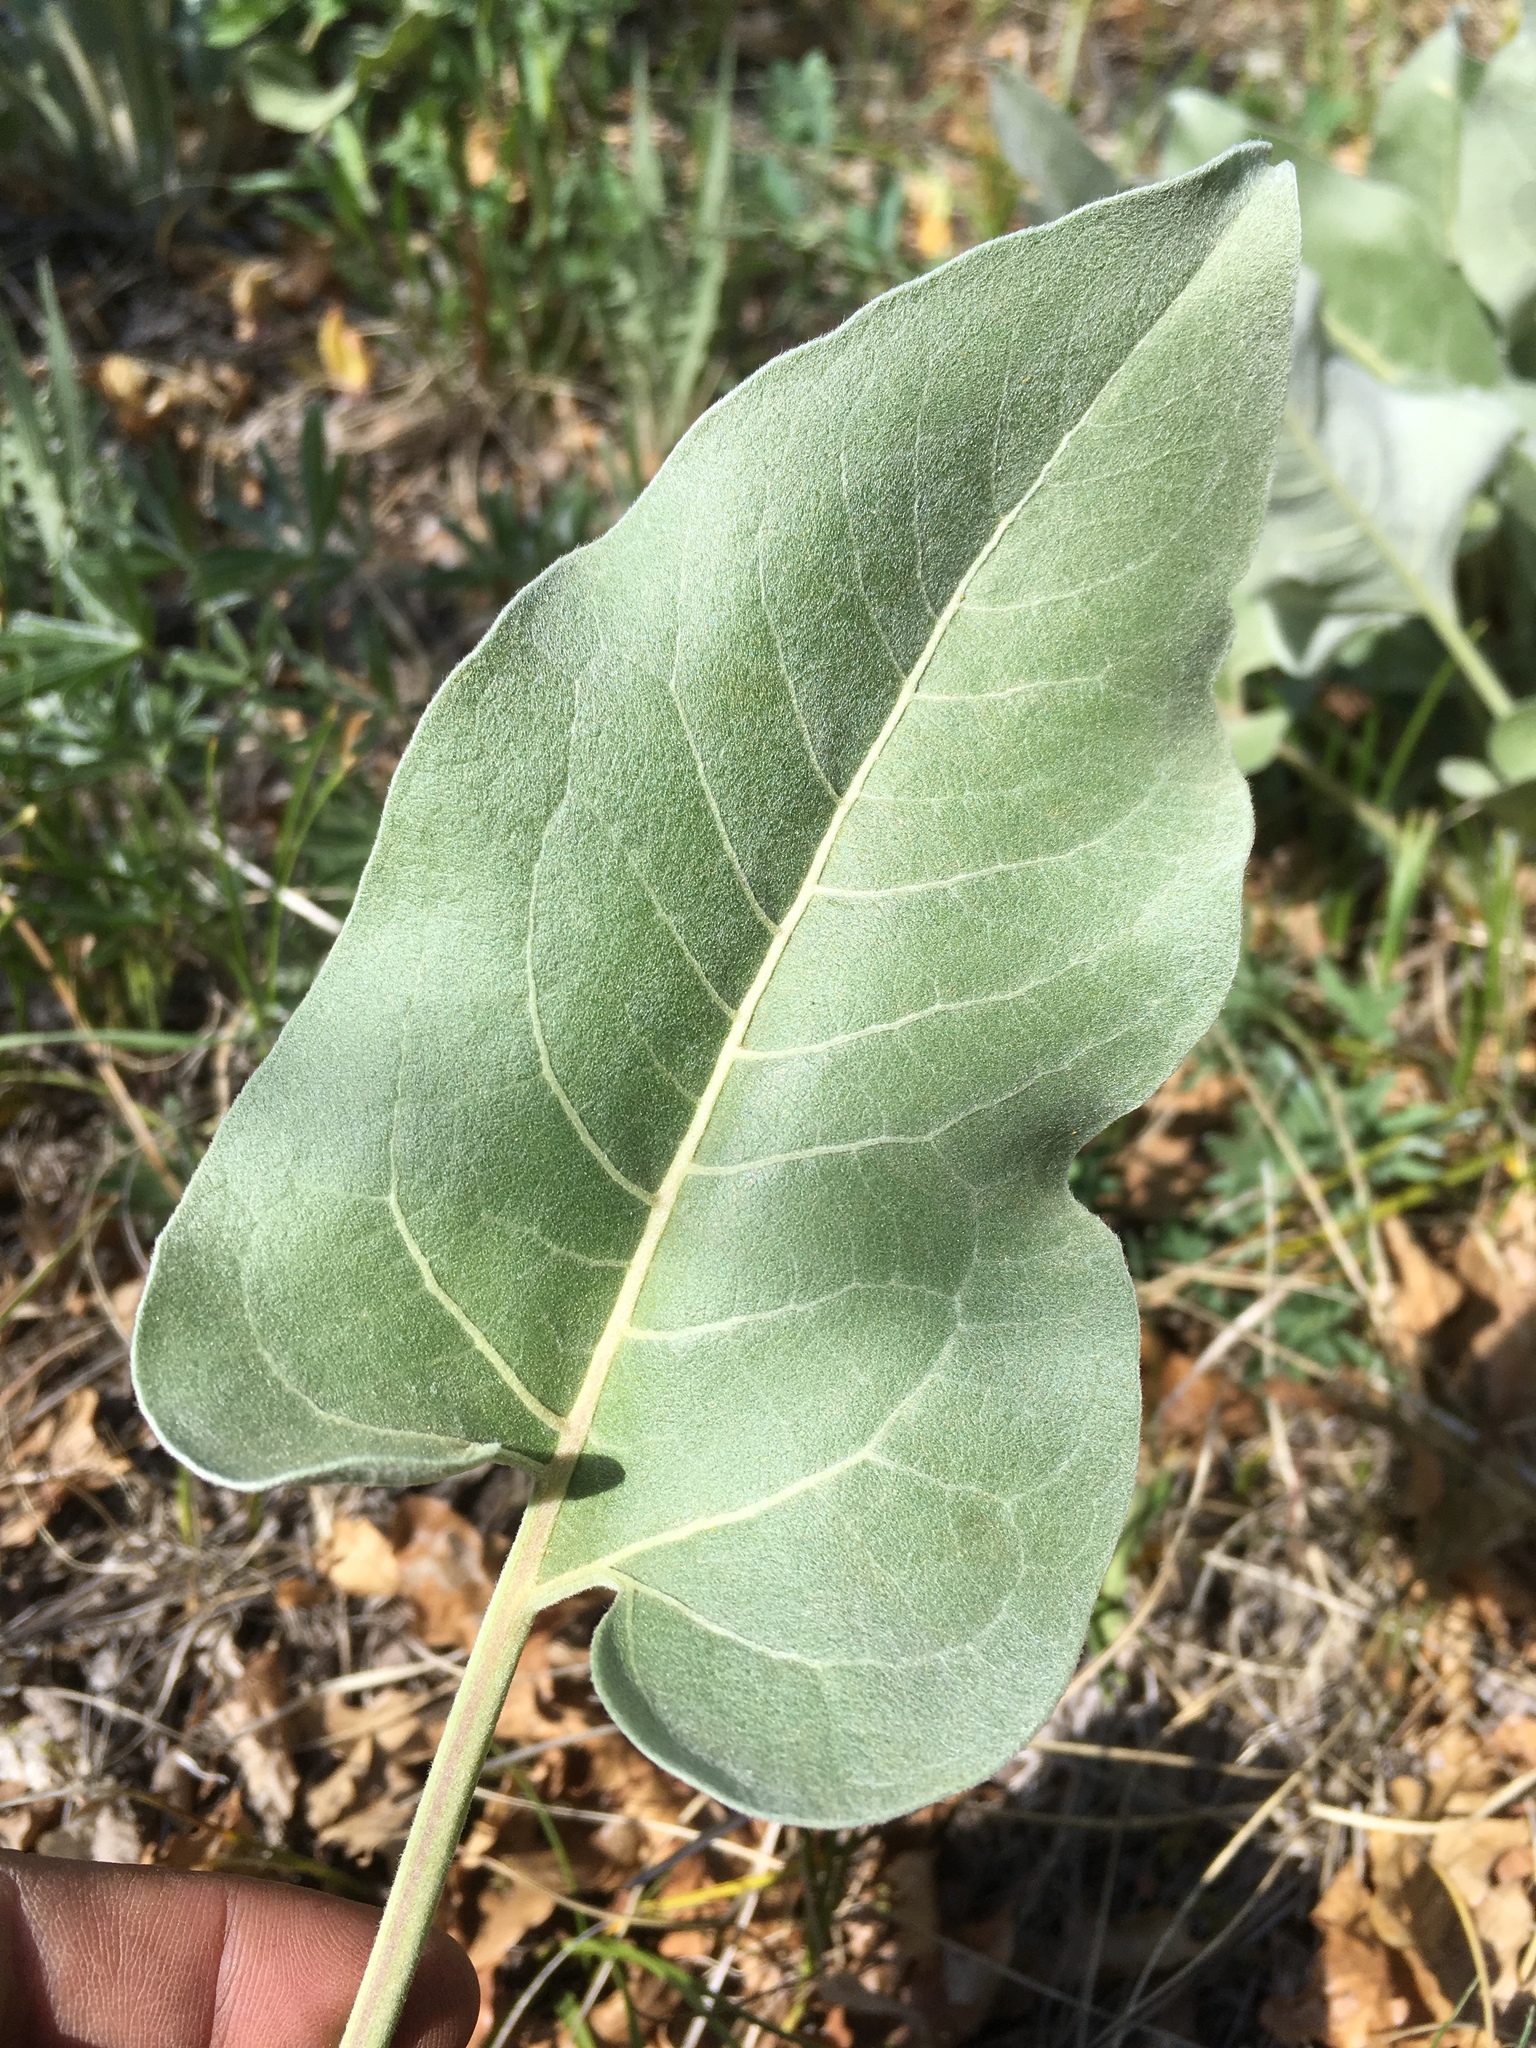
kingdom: Plantae
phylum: Tracheophyta
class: Magnoliopsida
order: Asterales
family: Asteraceae
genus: Wyethia
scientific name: Wyethia sagittata
